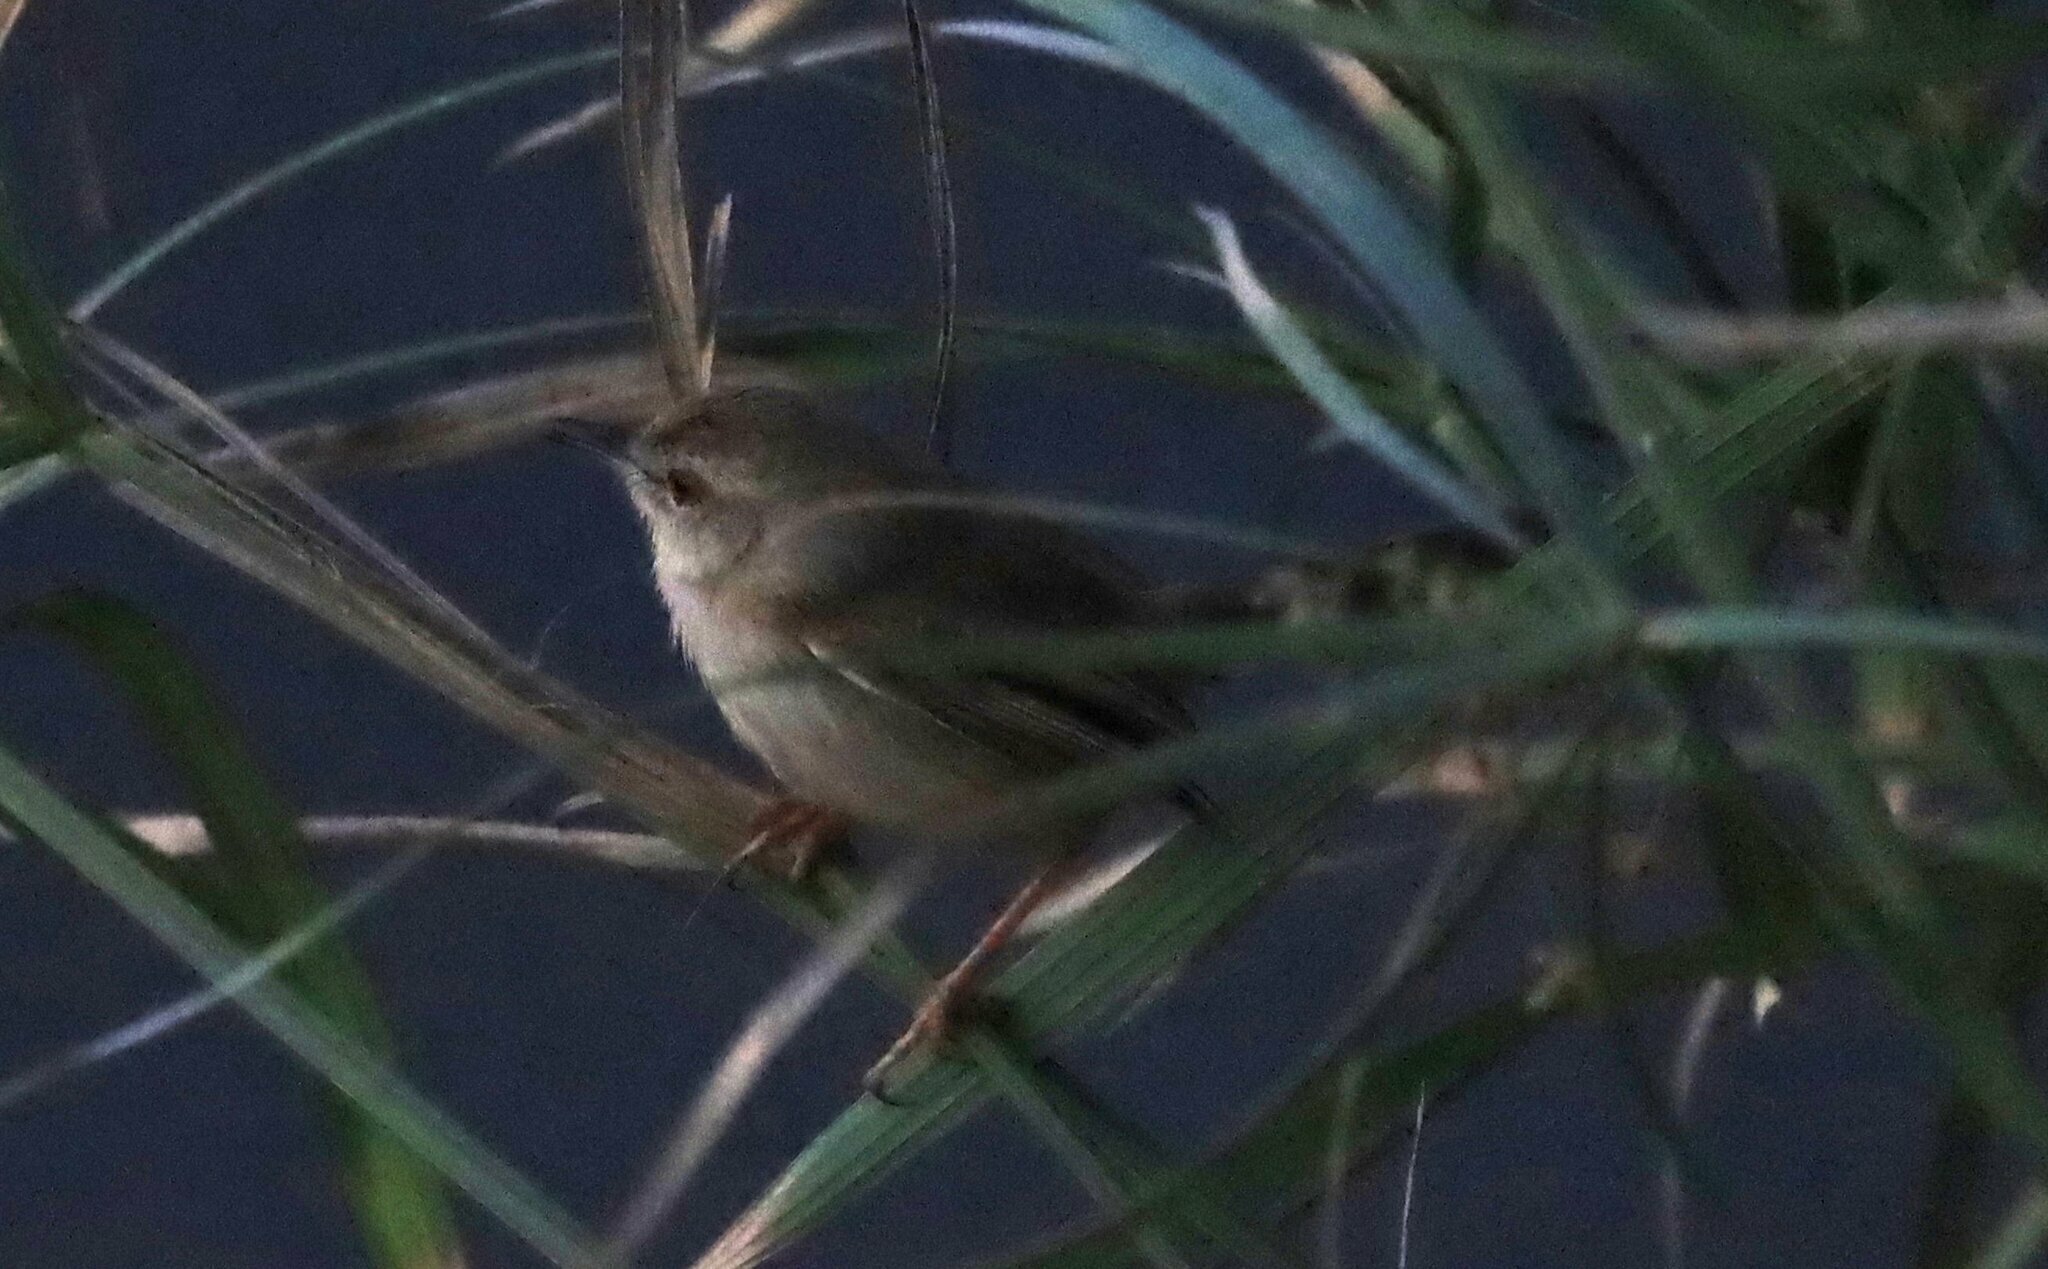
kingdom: Animalia
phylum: Chordata
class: Aves
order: Passeriformes
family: Cisticolidae
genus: Prinia
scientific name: Prinia subflava
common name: Tawny-flanked prinia
